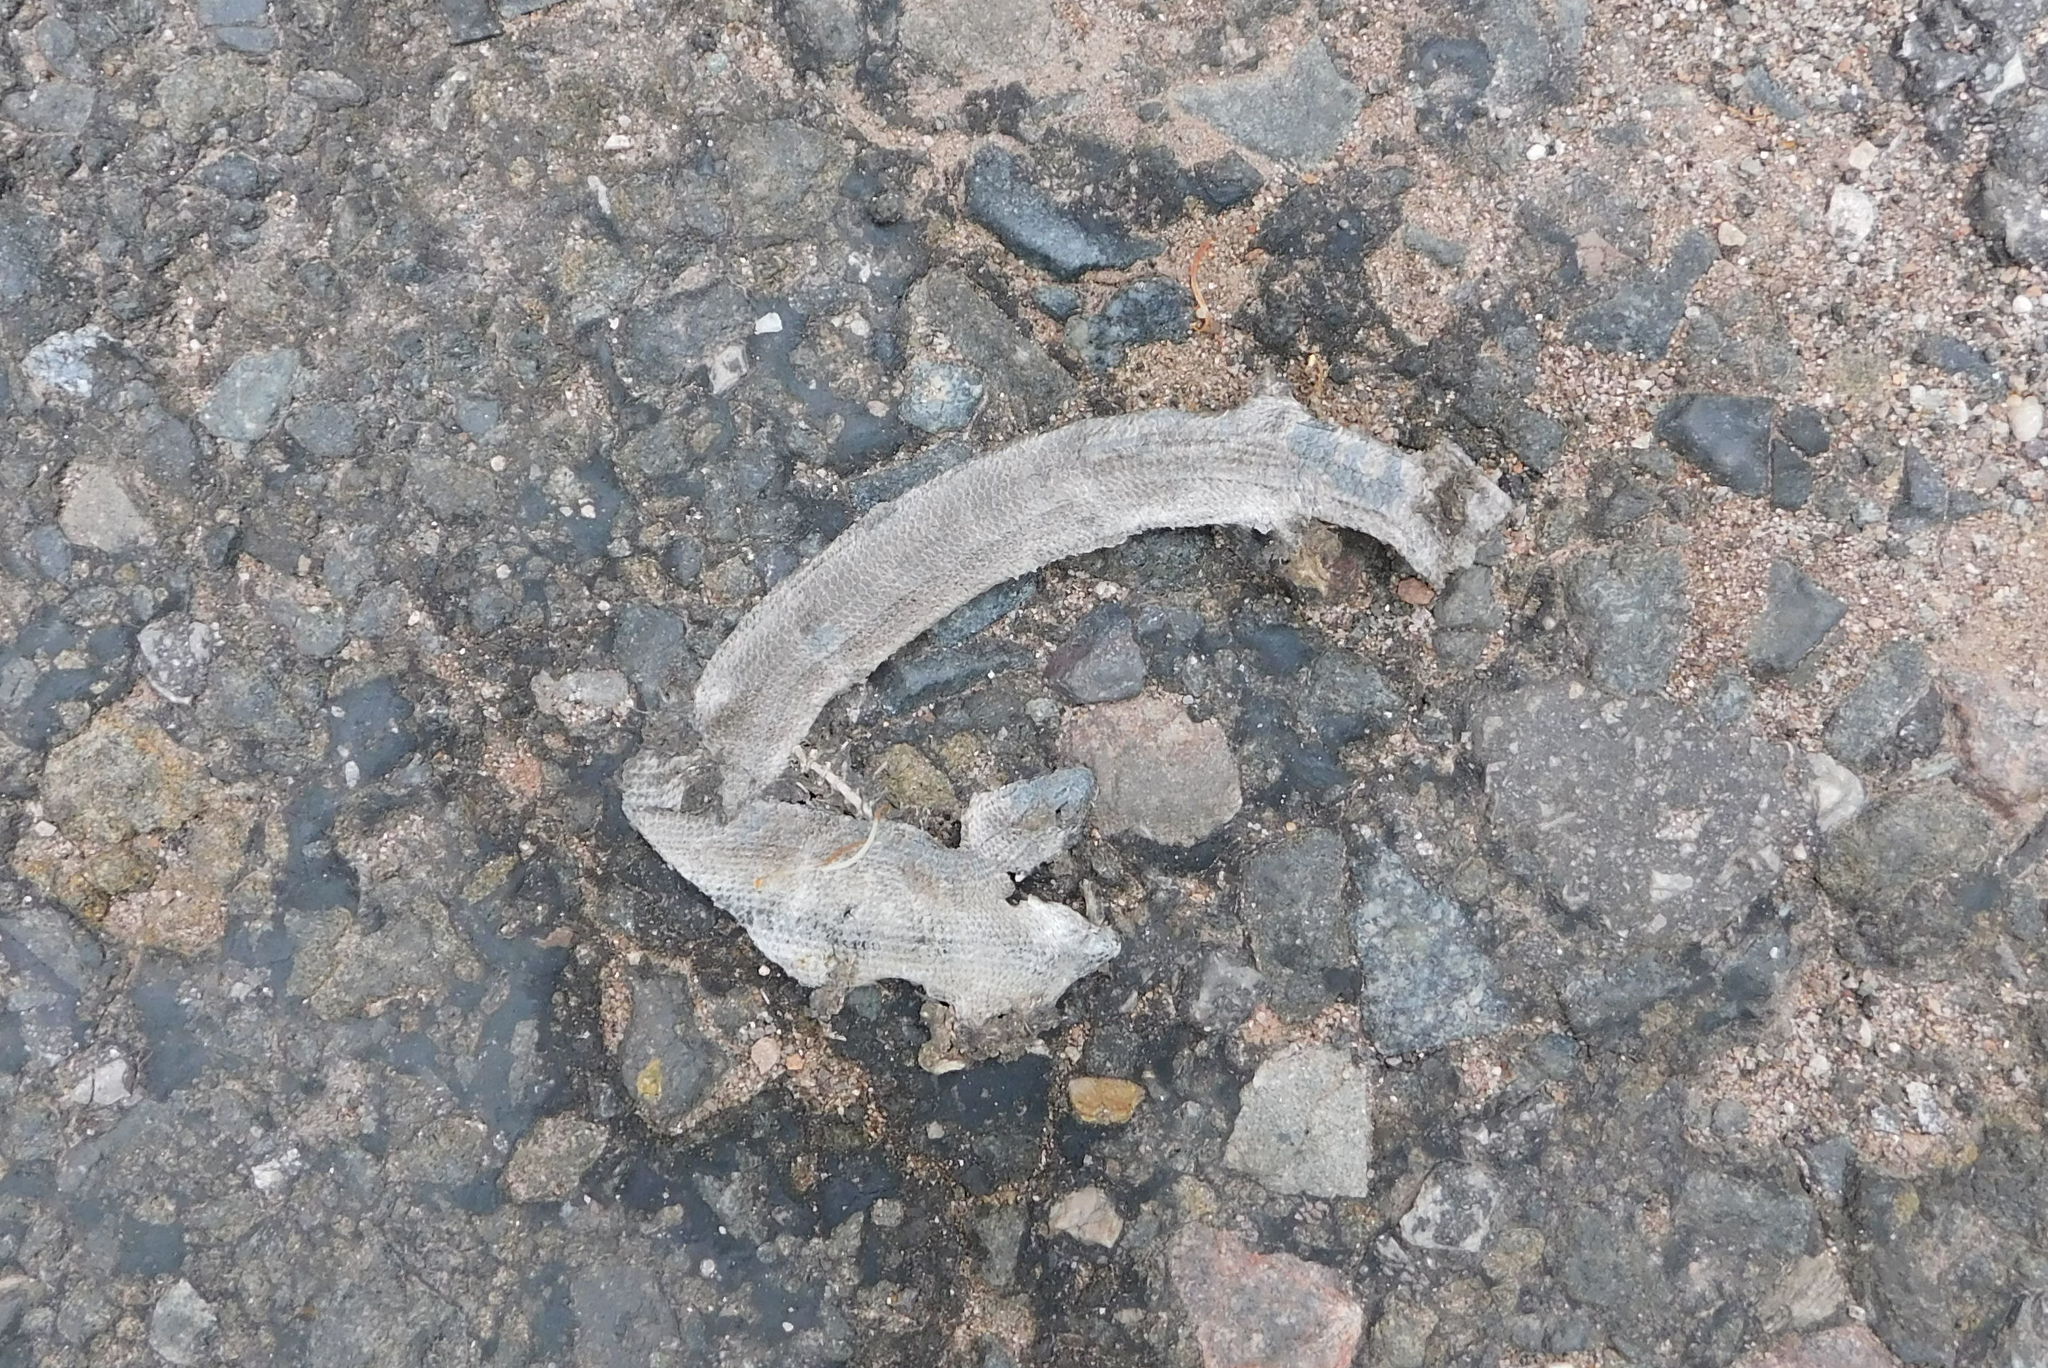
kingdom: Animalia
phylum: Chordata
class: Squamata
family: Anguidae
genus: Anguis
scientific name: Anguis fragilis
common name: Slow worm
